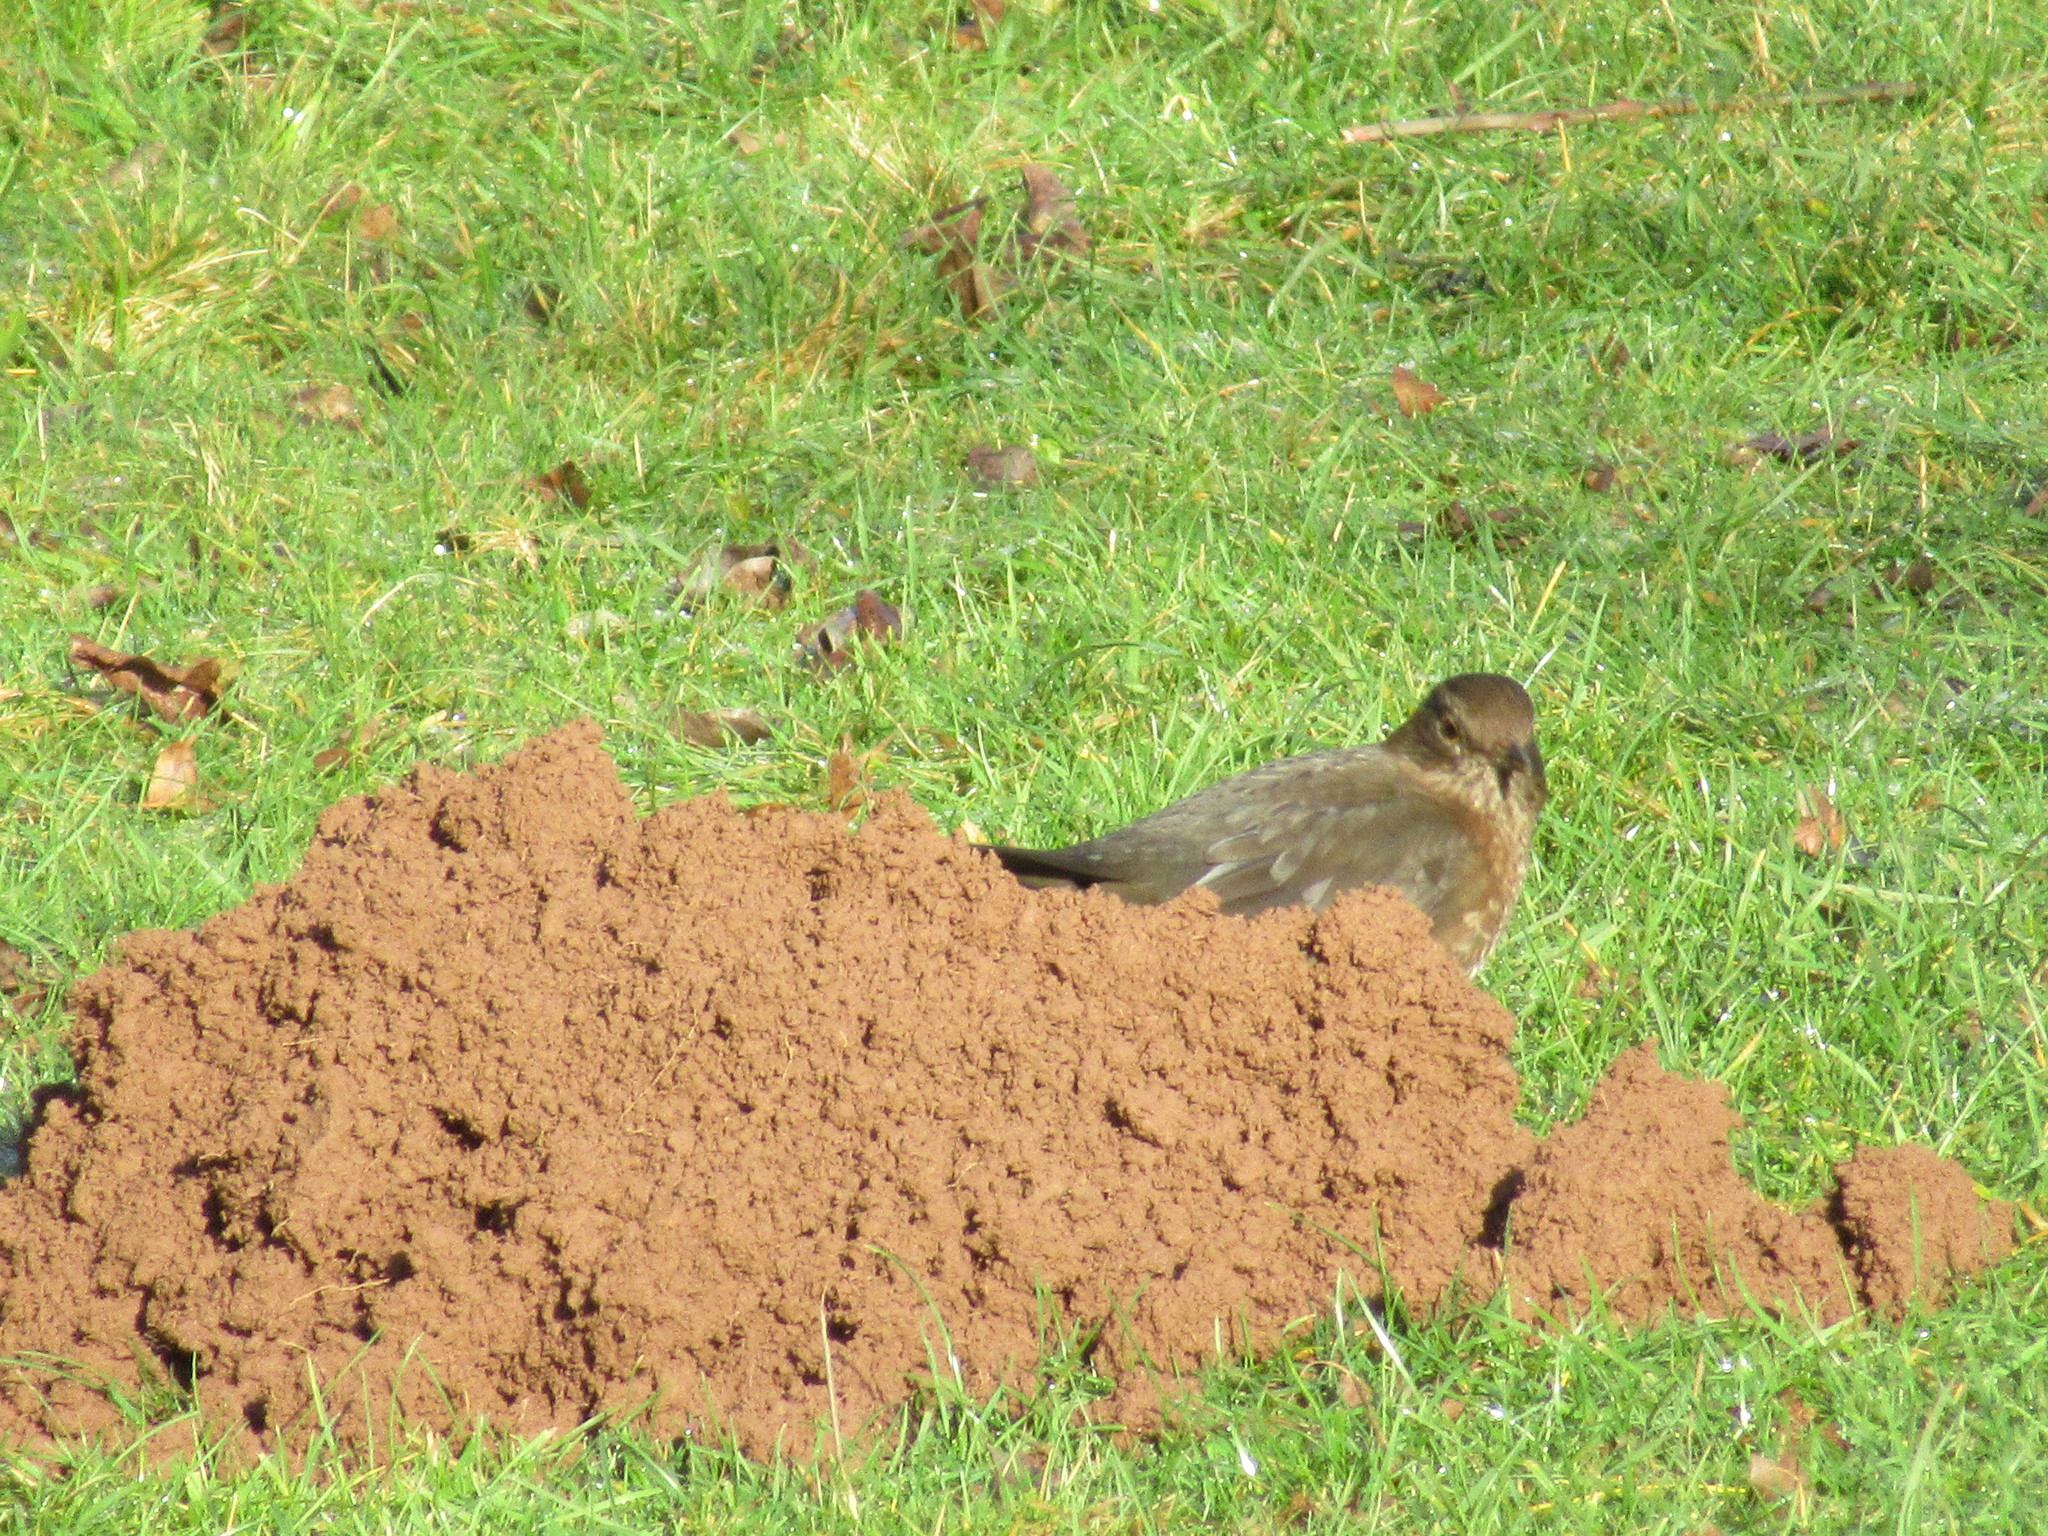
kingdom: Animalia
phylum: Chordata
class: Aves
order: Passeriformes
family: Turdidae
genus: Turdus
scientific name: Turdus merula
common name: Common blackbird
